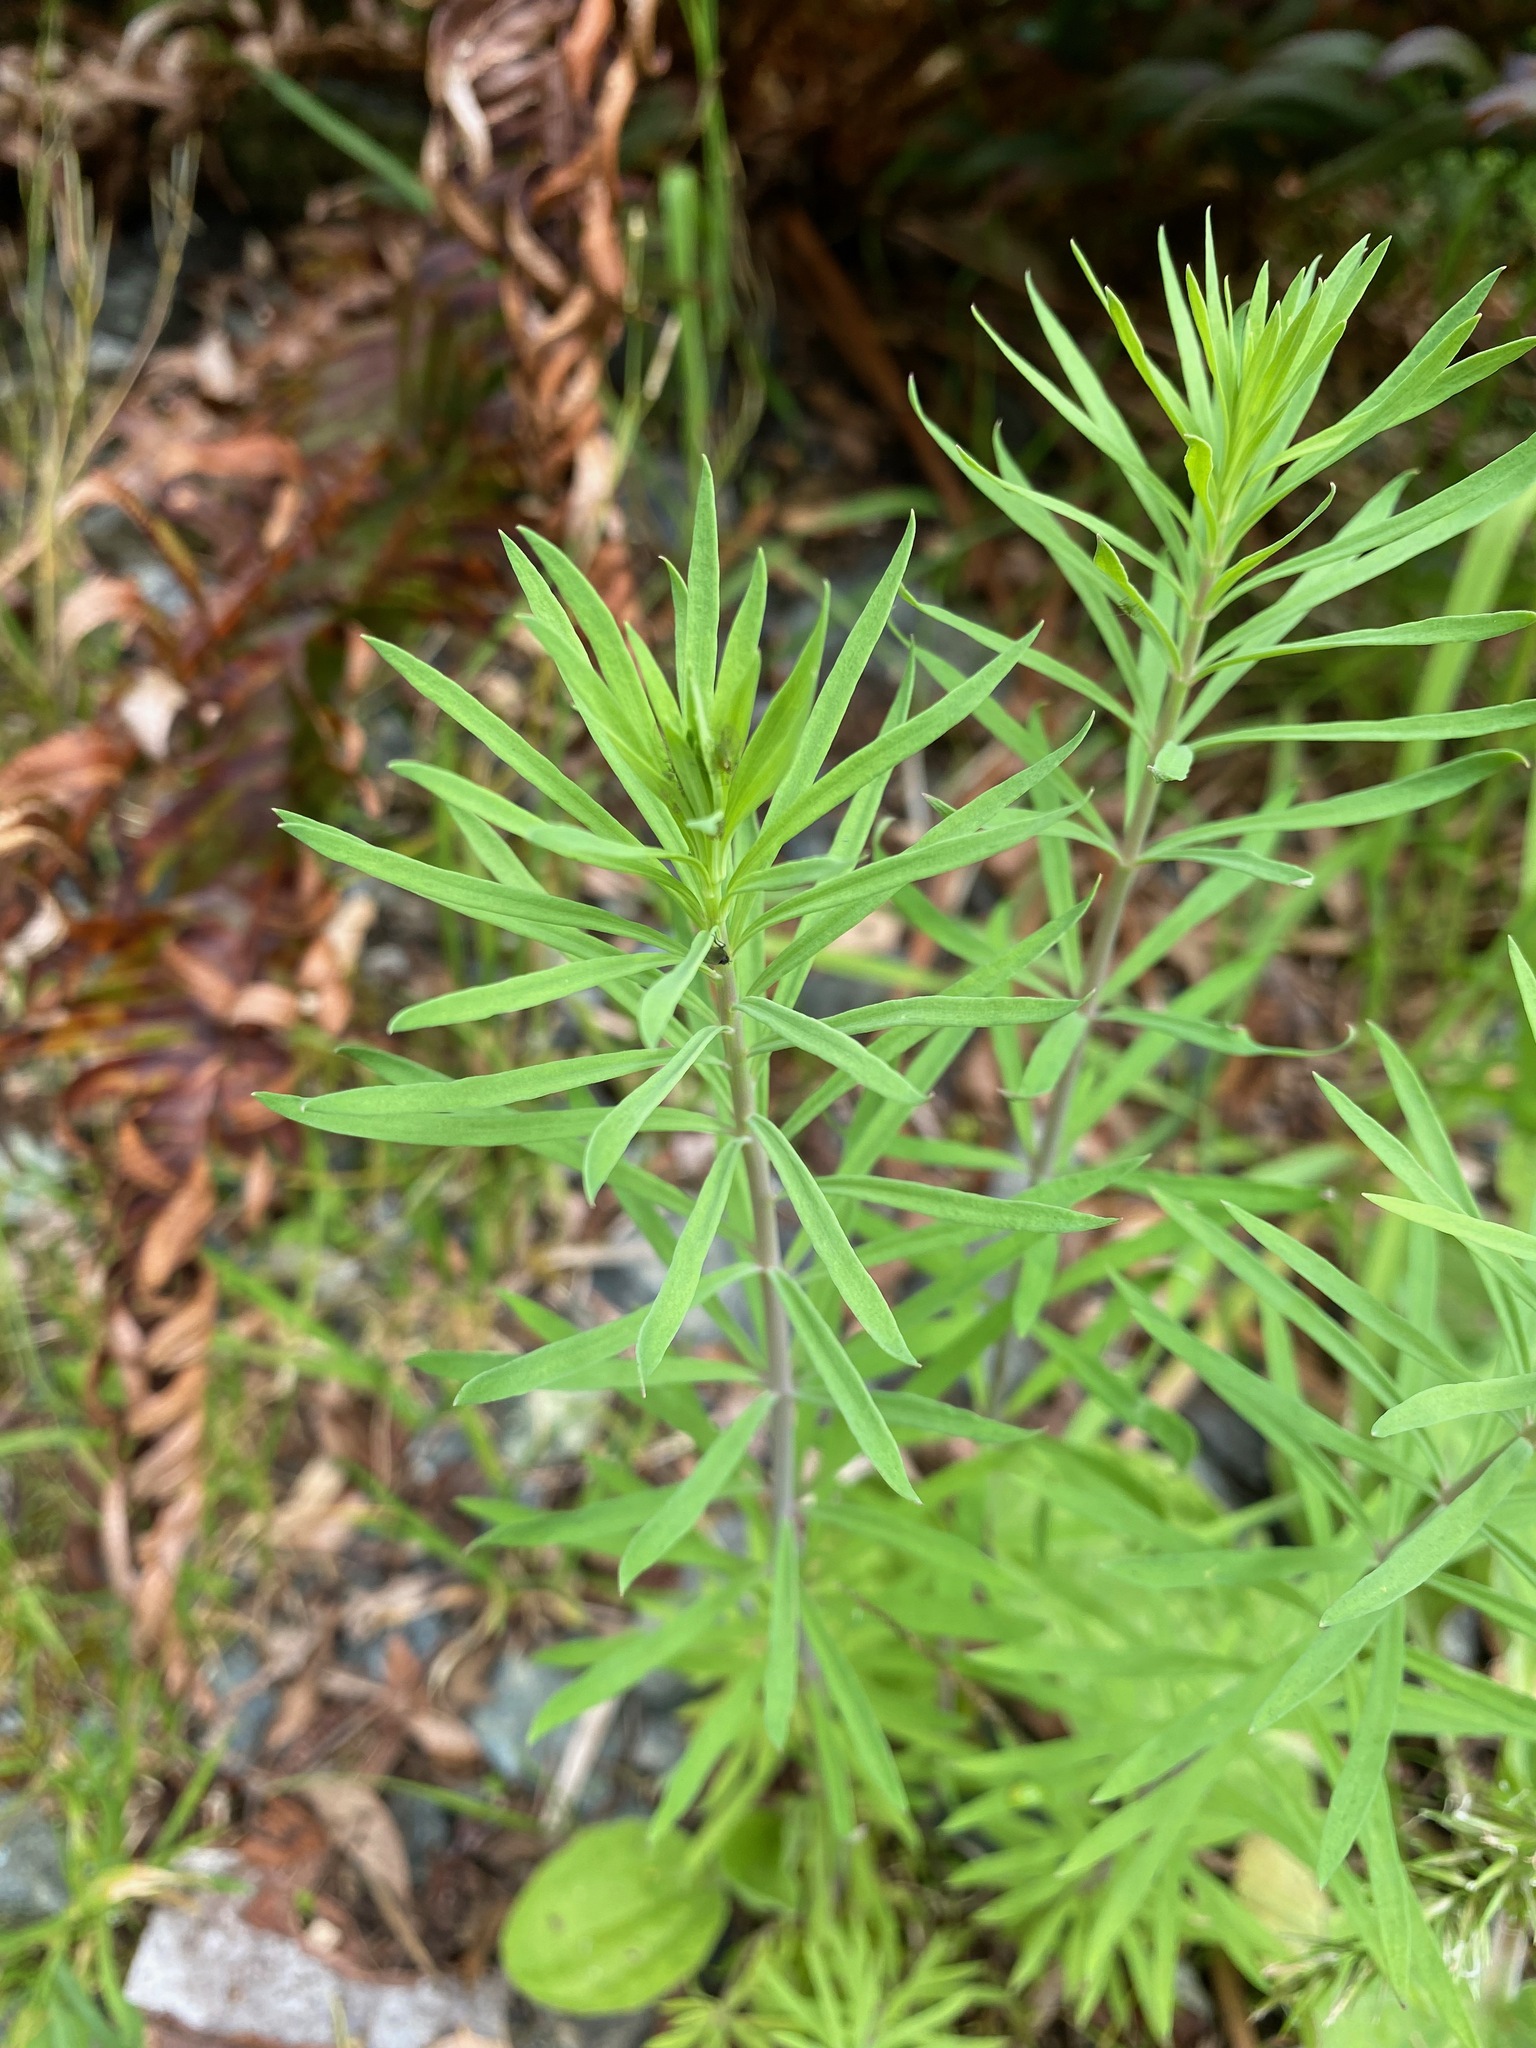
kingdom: Plantae
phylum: Tracheophyta
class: Magnoliopsida
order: Lamiales
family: Plantaginaceae
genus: Linaria
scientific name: Linaria purpurea
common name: Purple toadflax
